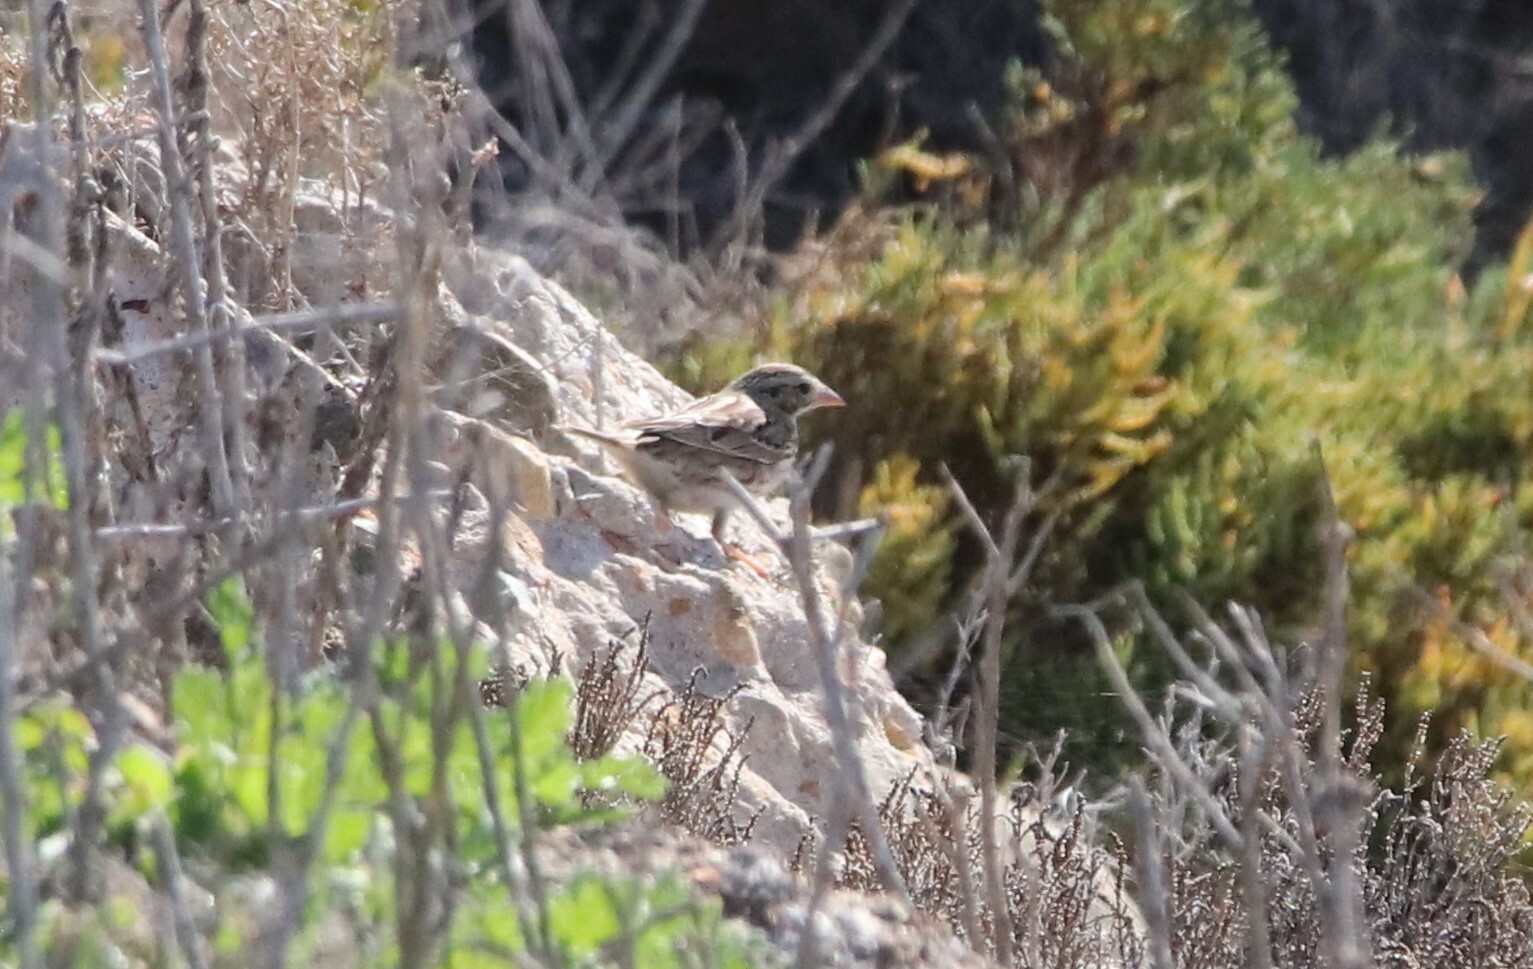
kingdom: Animalia
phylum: Chordata
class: Aves
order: Passeriformes
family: Passerellidae
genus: Passerculus
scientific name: Passerculus sandwichensis
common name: Savannah sparrow
